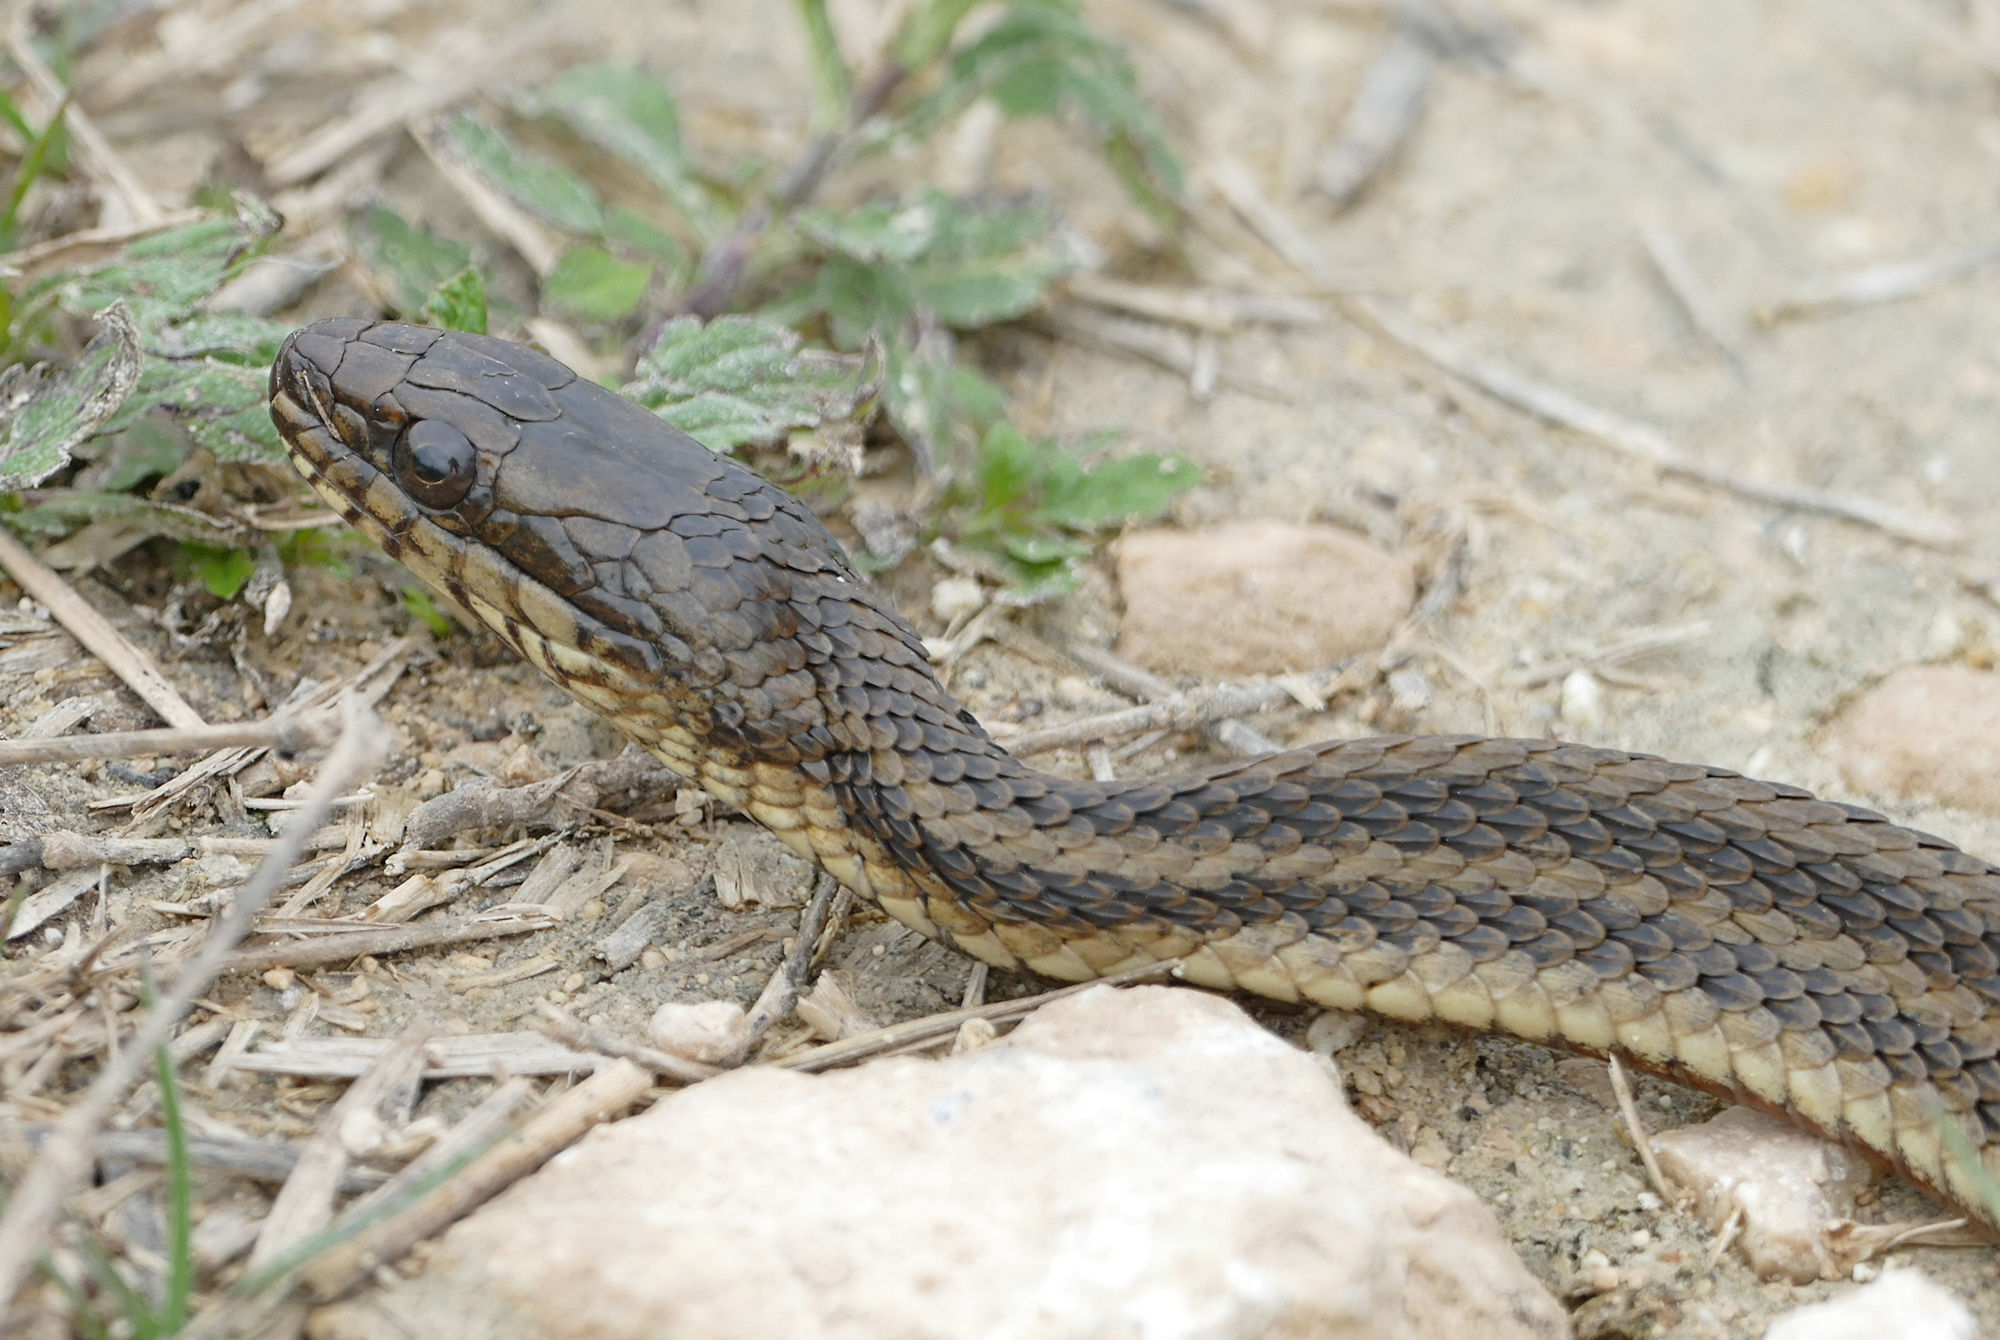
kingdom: Animalia
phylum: Chordata
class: Squamata
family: Colubridae
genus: Nerodia
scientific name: Nerodia clarkii
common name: Atlantic saltmarsh snake
